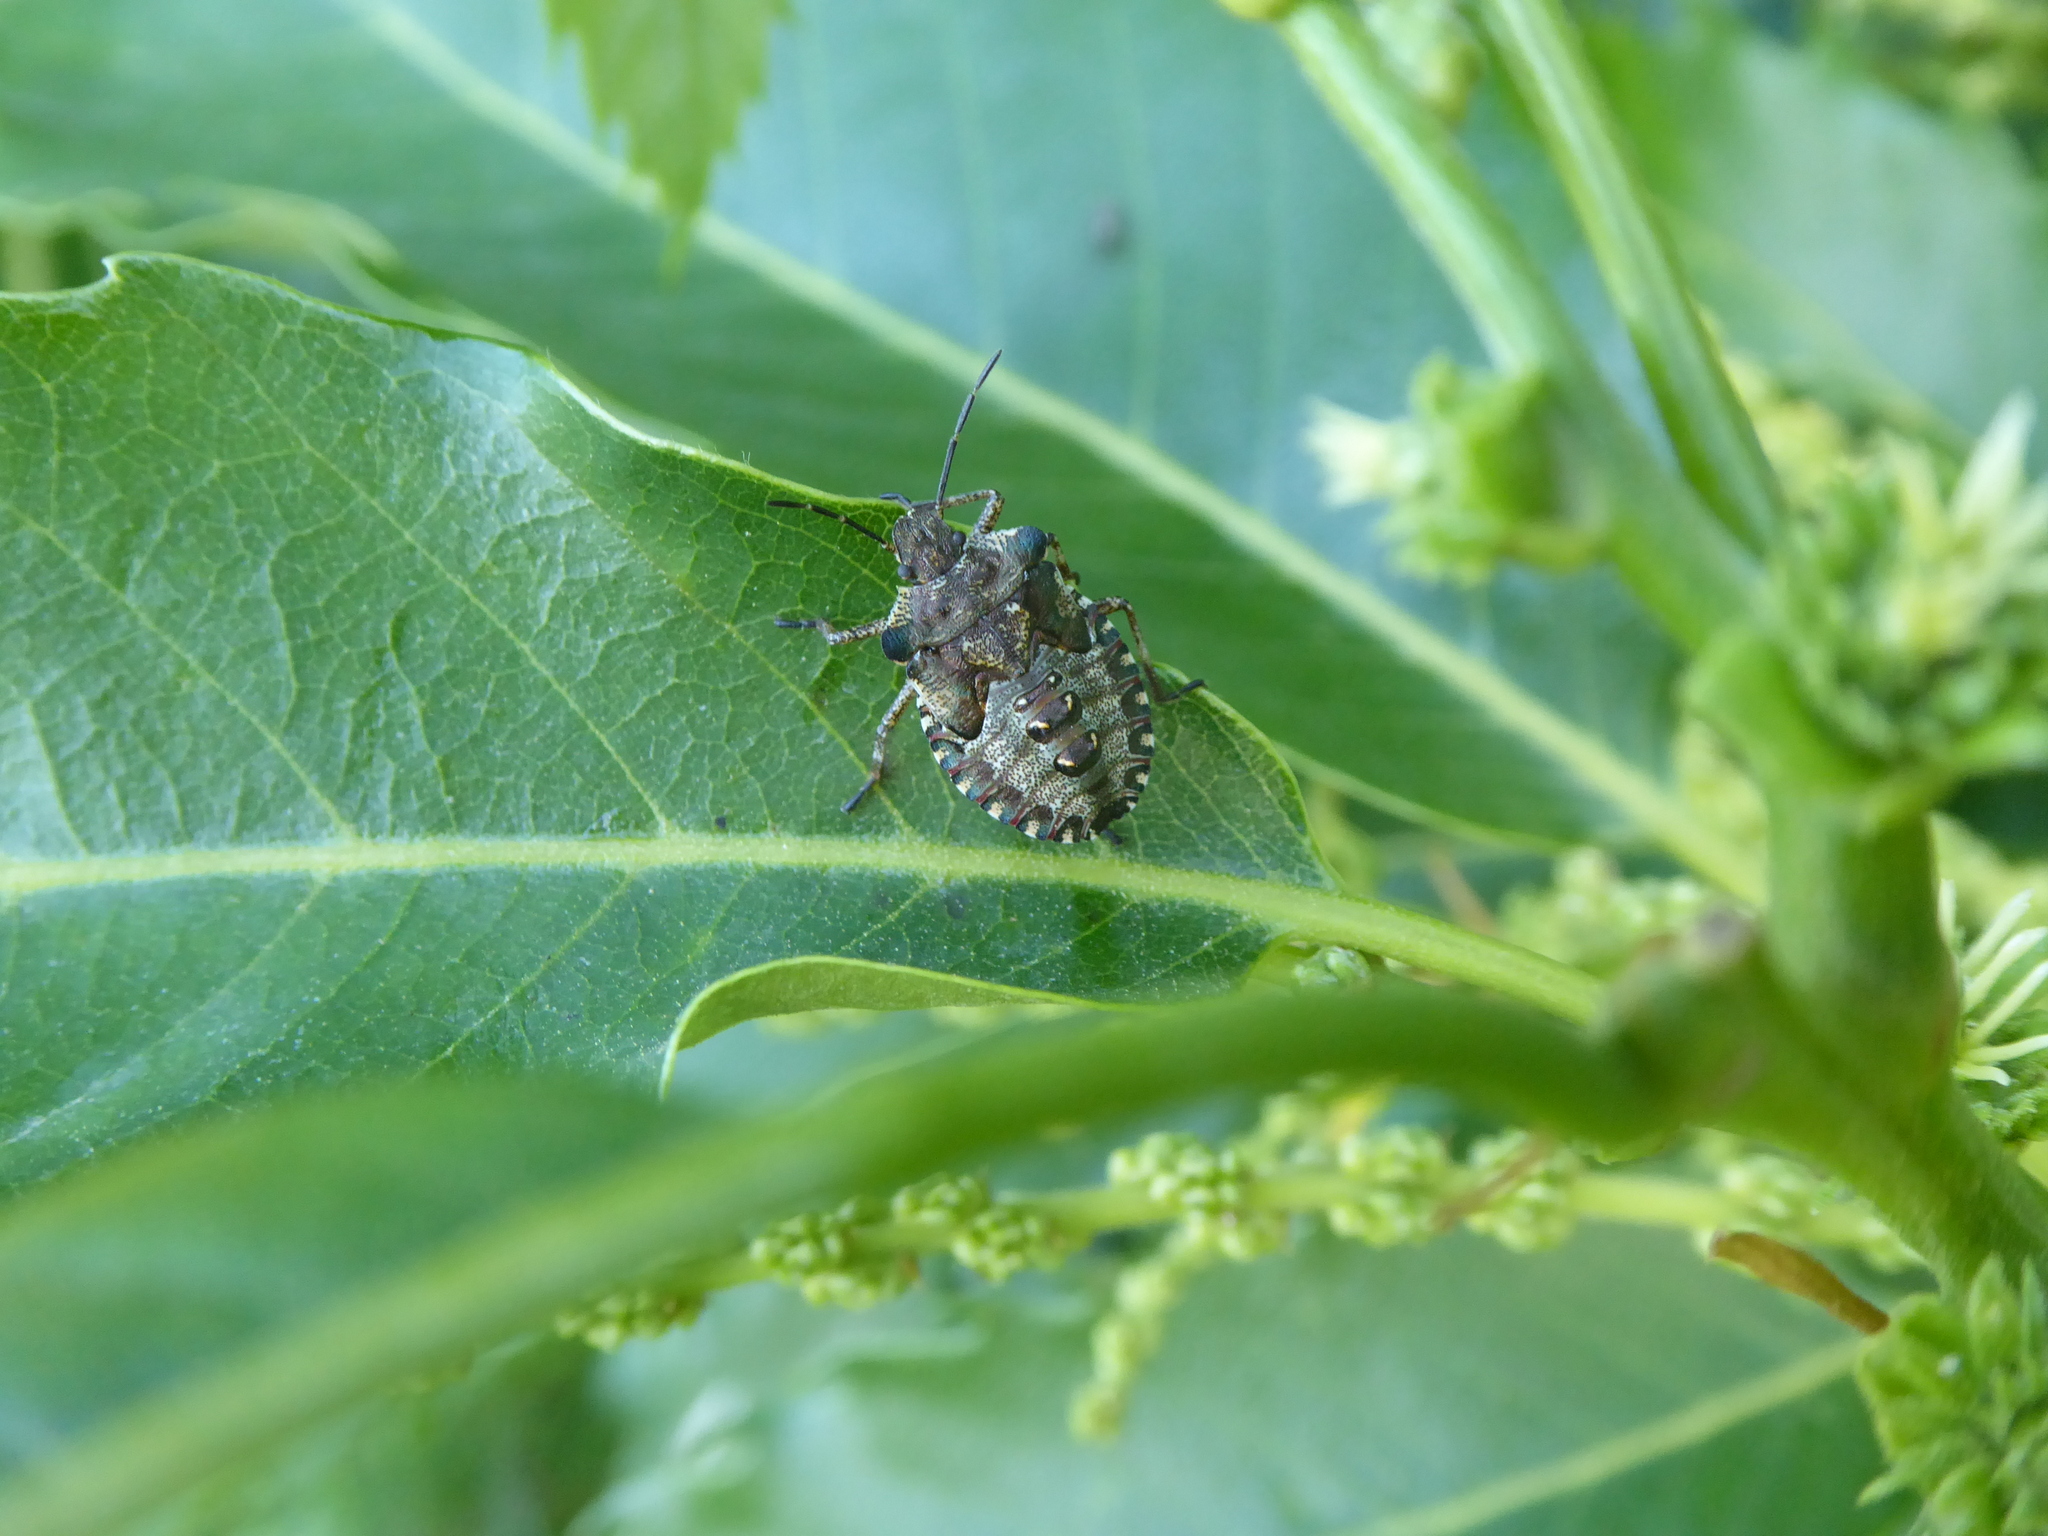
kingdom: Animalia
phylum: Arthropoda
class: Insecta
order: Hemiptera
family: Pentatomidae
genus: Pentatoma
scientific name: Pentatoma rufipes
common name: Forest bug
